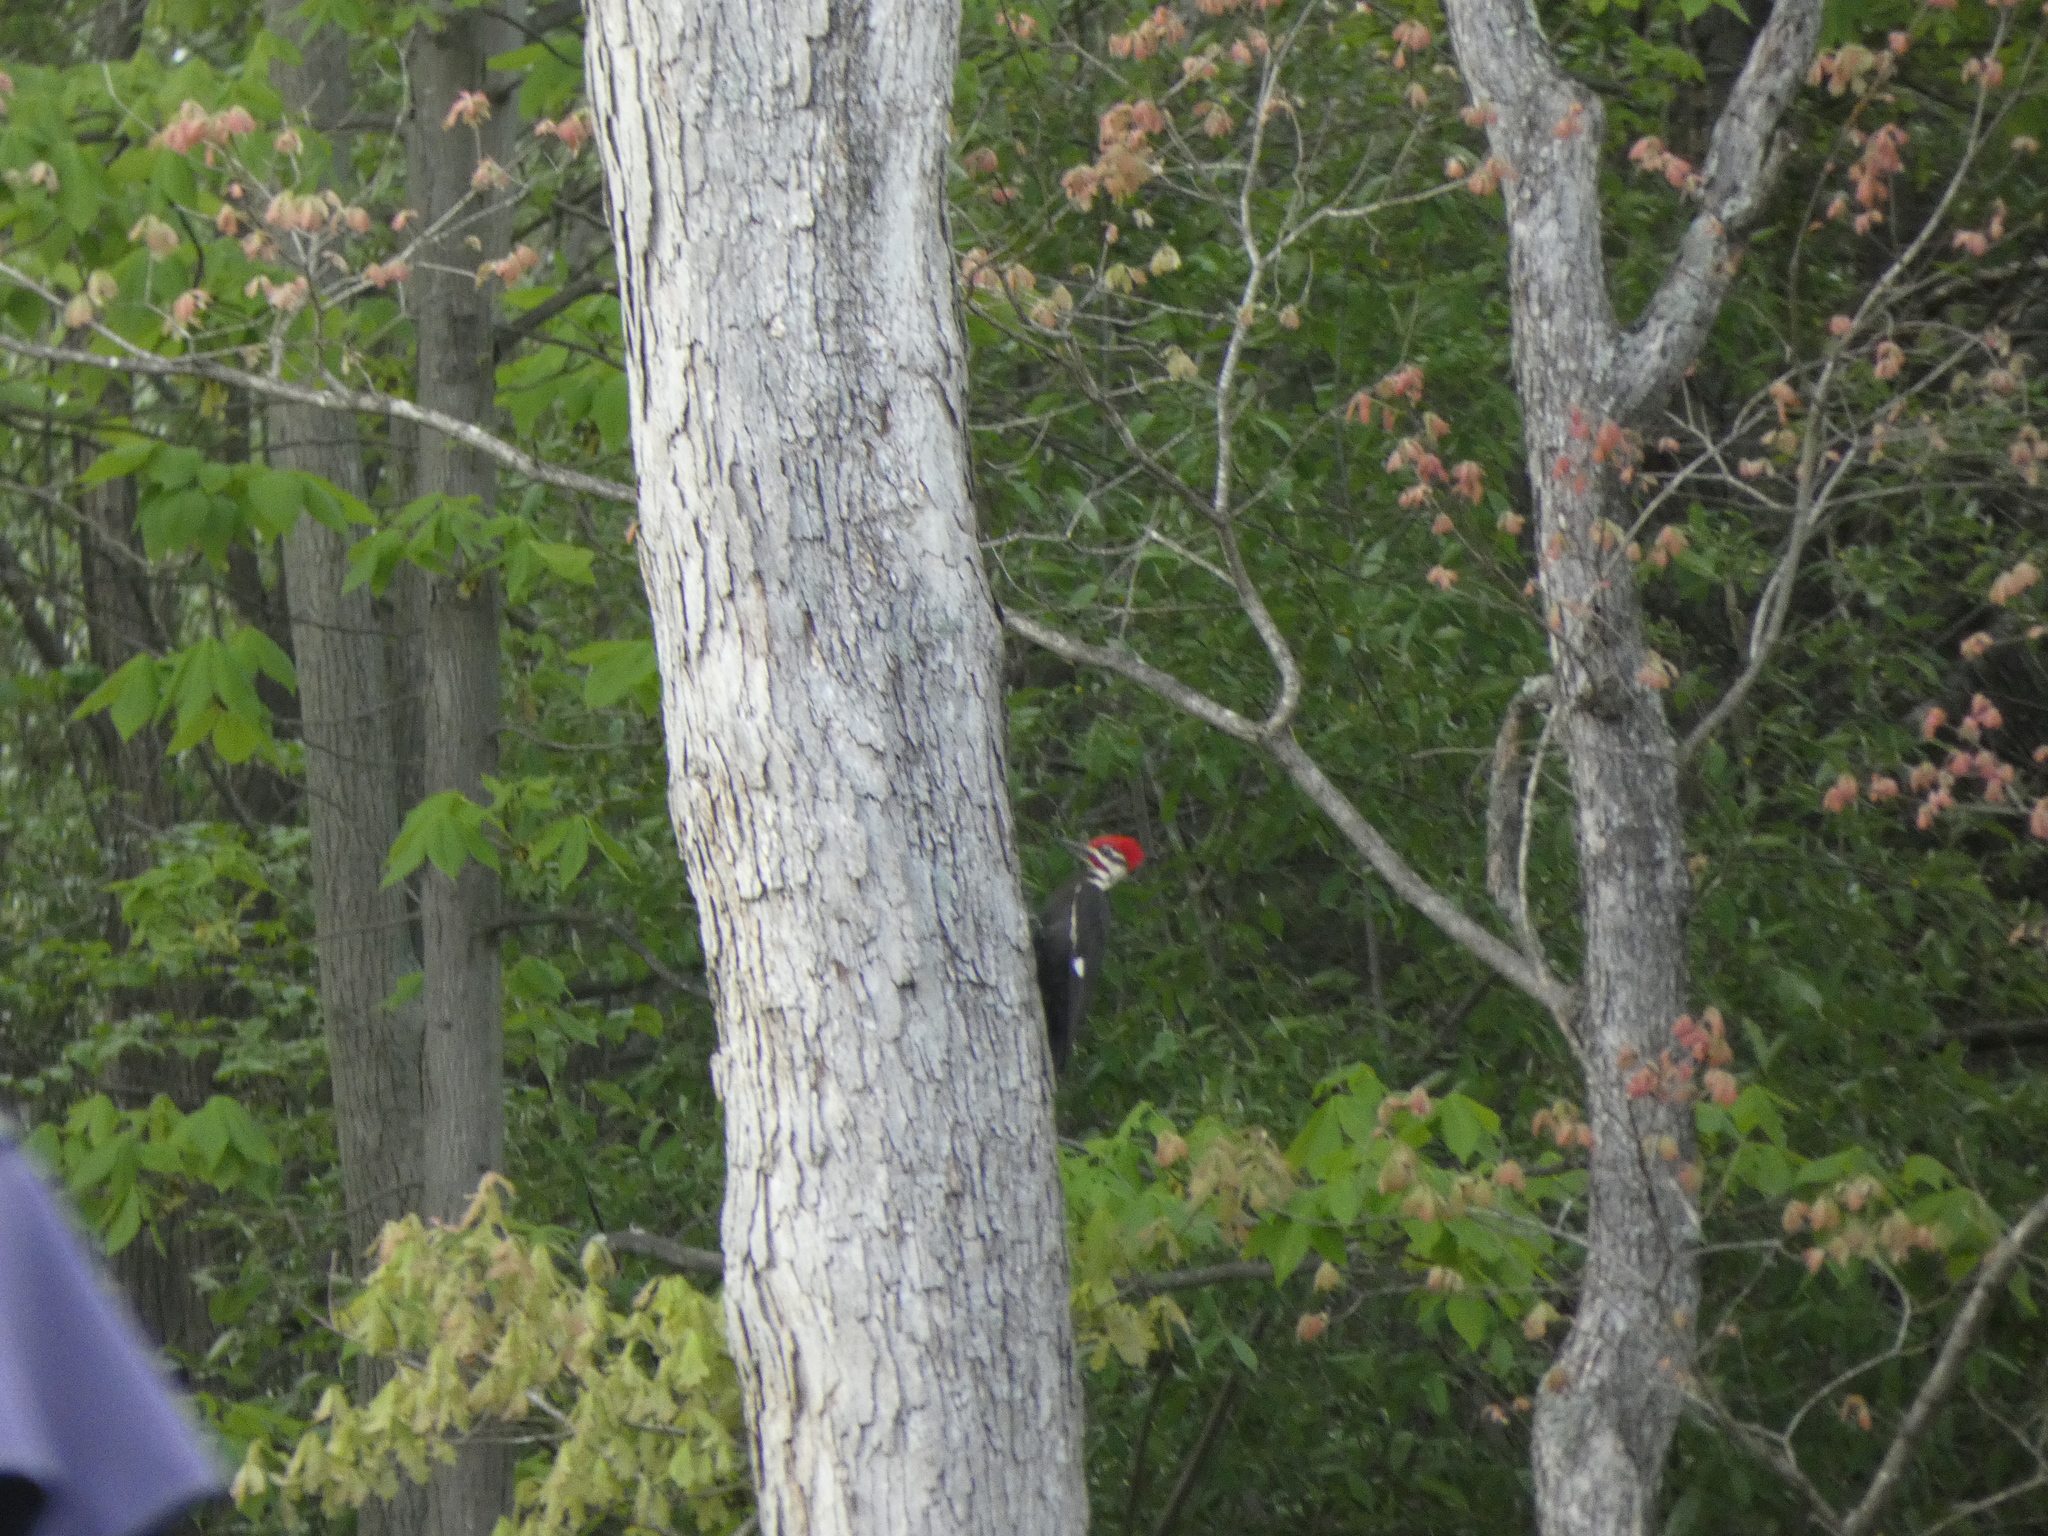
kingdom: Animalia
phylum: Chordata
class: Aves
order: Piciformes
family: Picidae
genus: Dryocopus
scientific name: Dryocopus pileatus
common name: Pileated woodpecker
